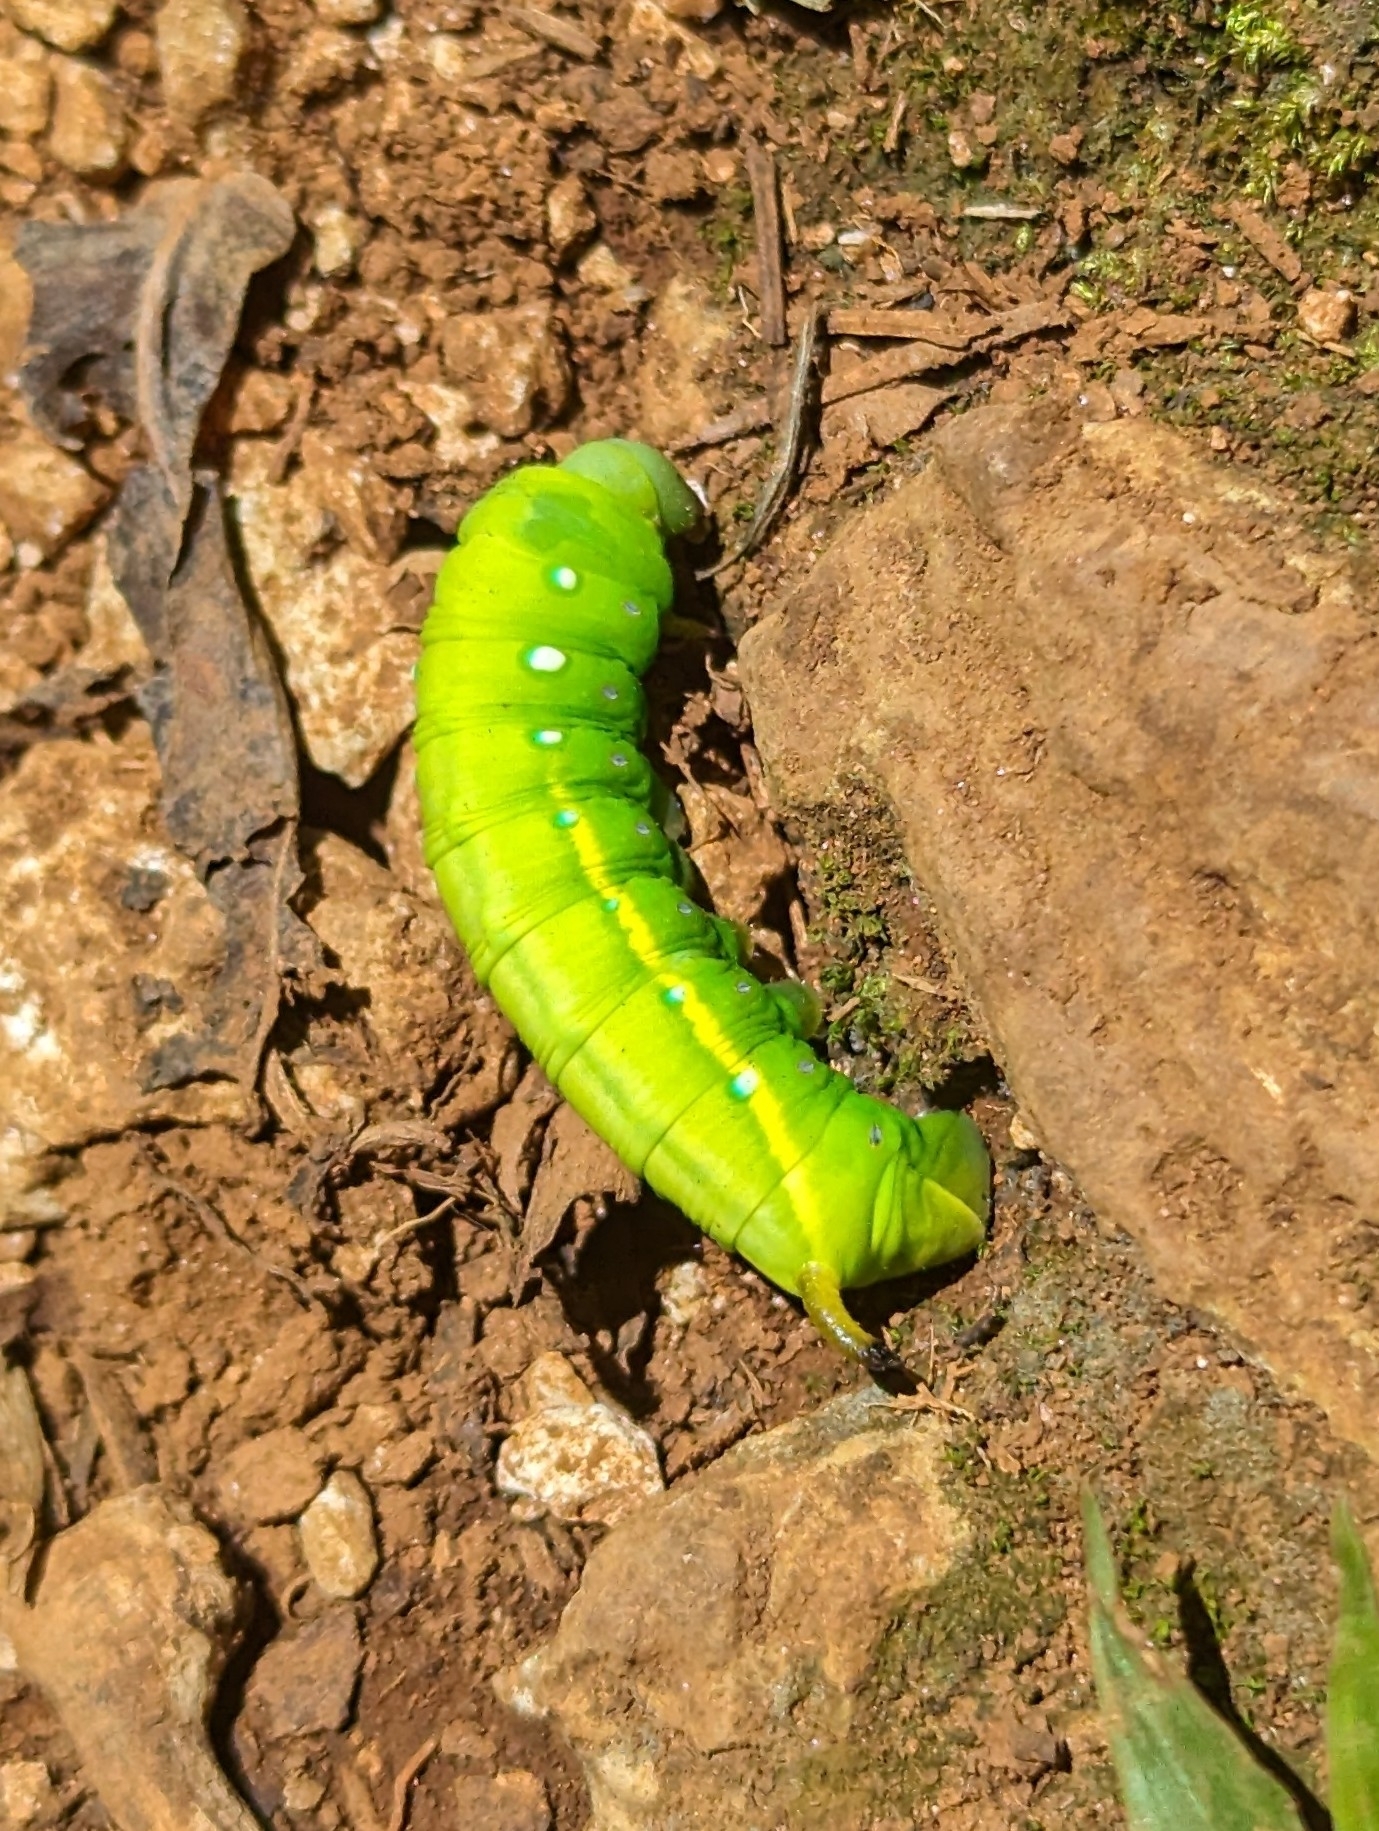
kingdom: Animalia
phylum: Arthropoda
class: Insecta
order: Lepidoptera
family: Sphingidae
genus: Gnathothlibus
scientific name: Gnathothlibus eras
